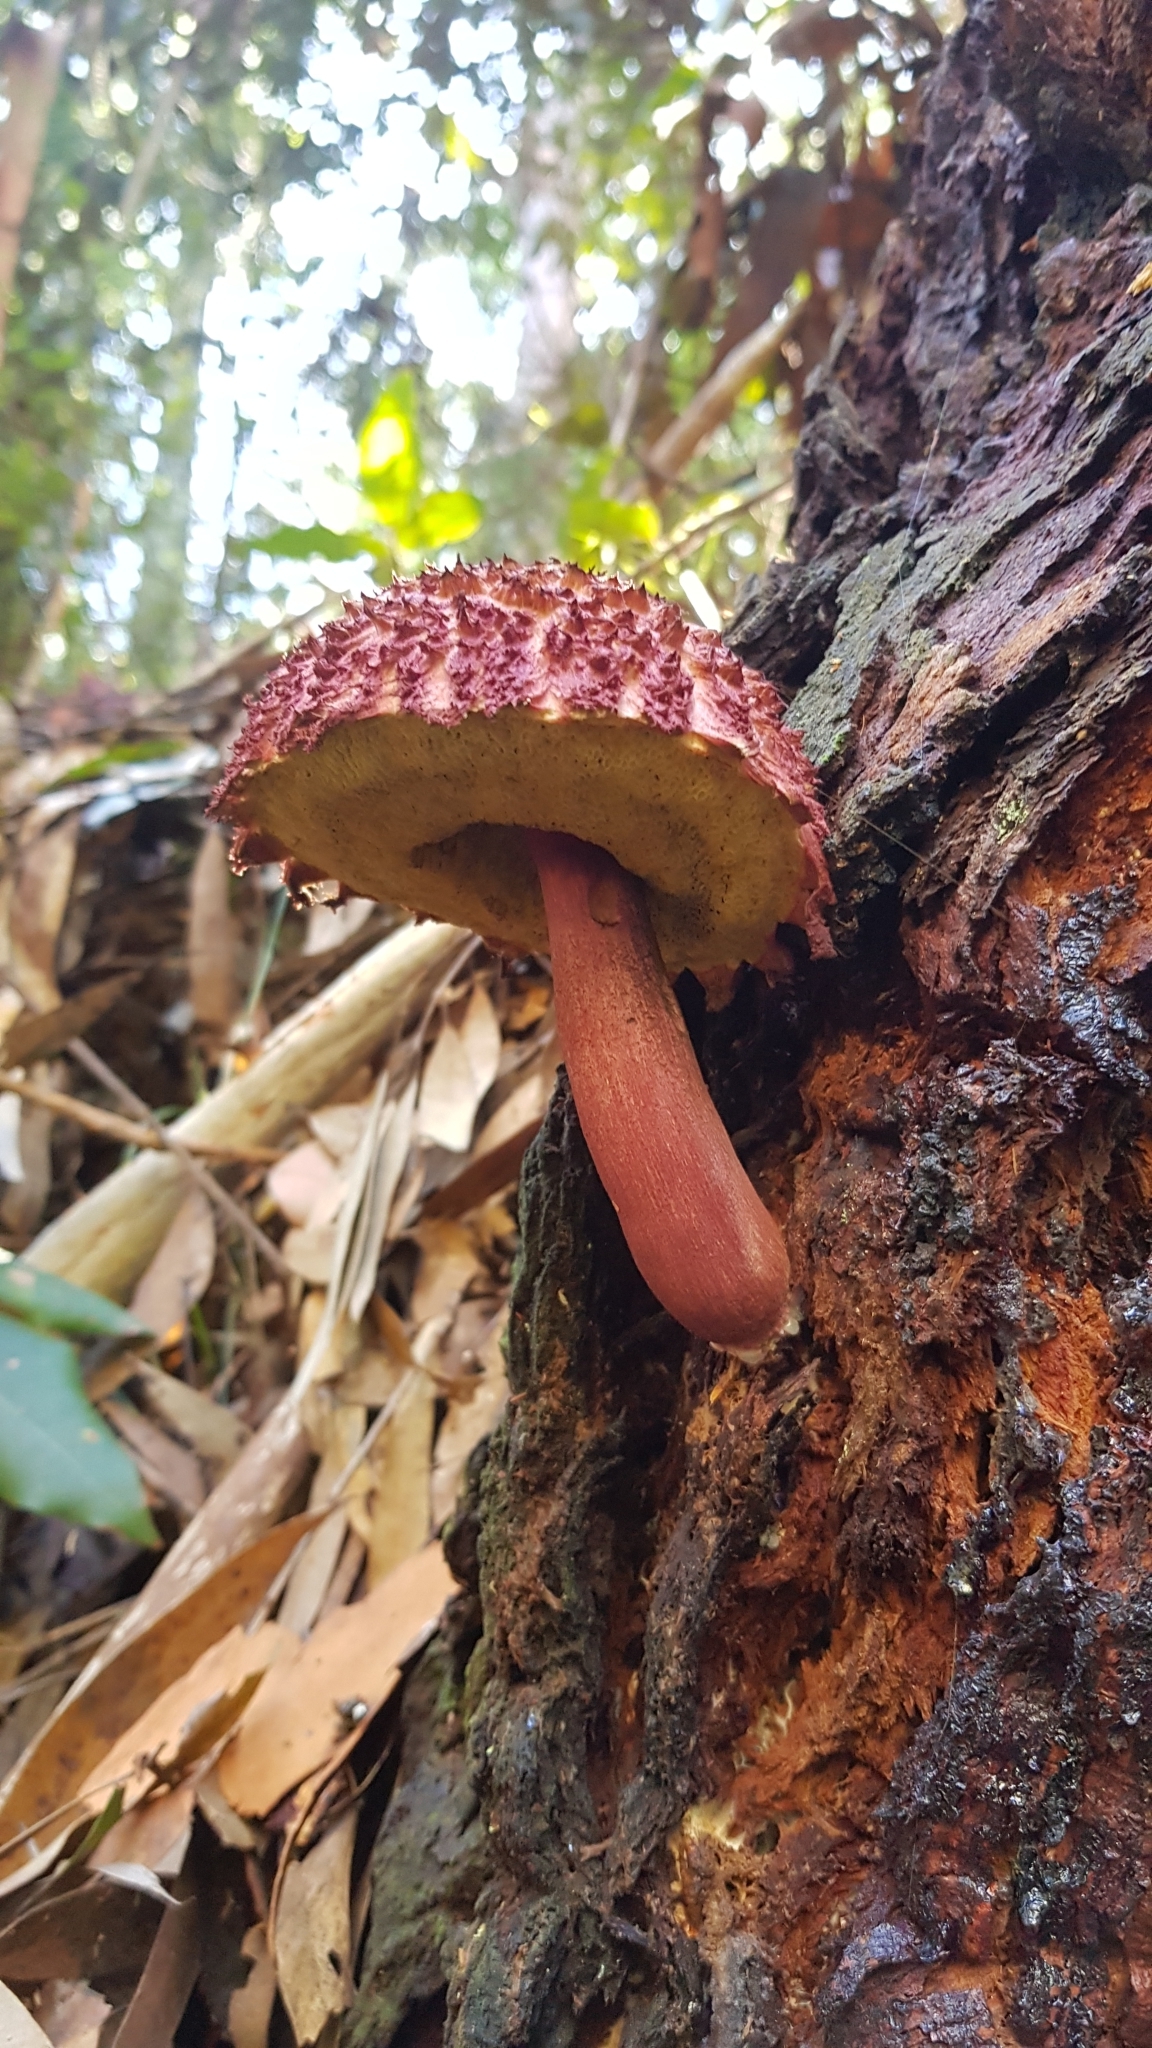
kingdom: Fungi
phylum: Basidiomycota
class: Agaricomycetes
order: Boletales
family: Boletaceae
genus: Boletellus
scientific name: Boletellus emodensis
